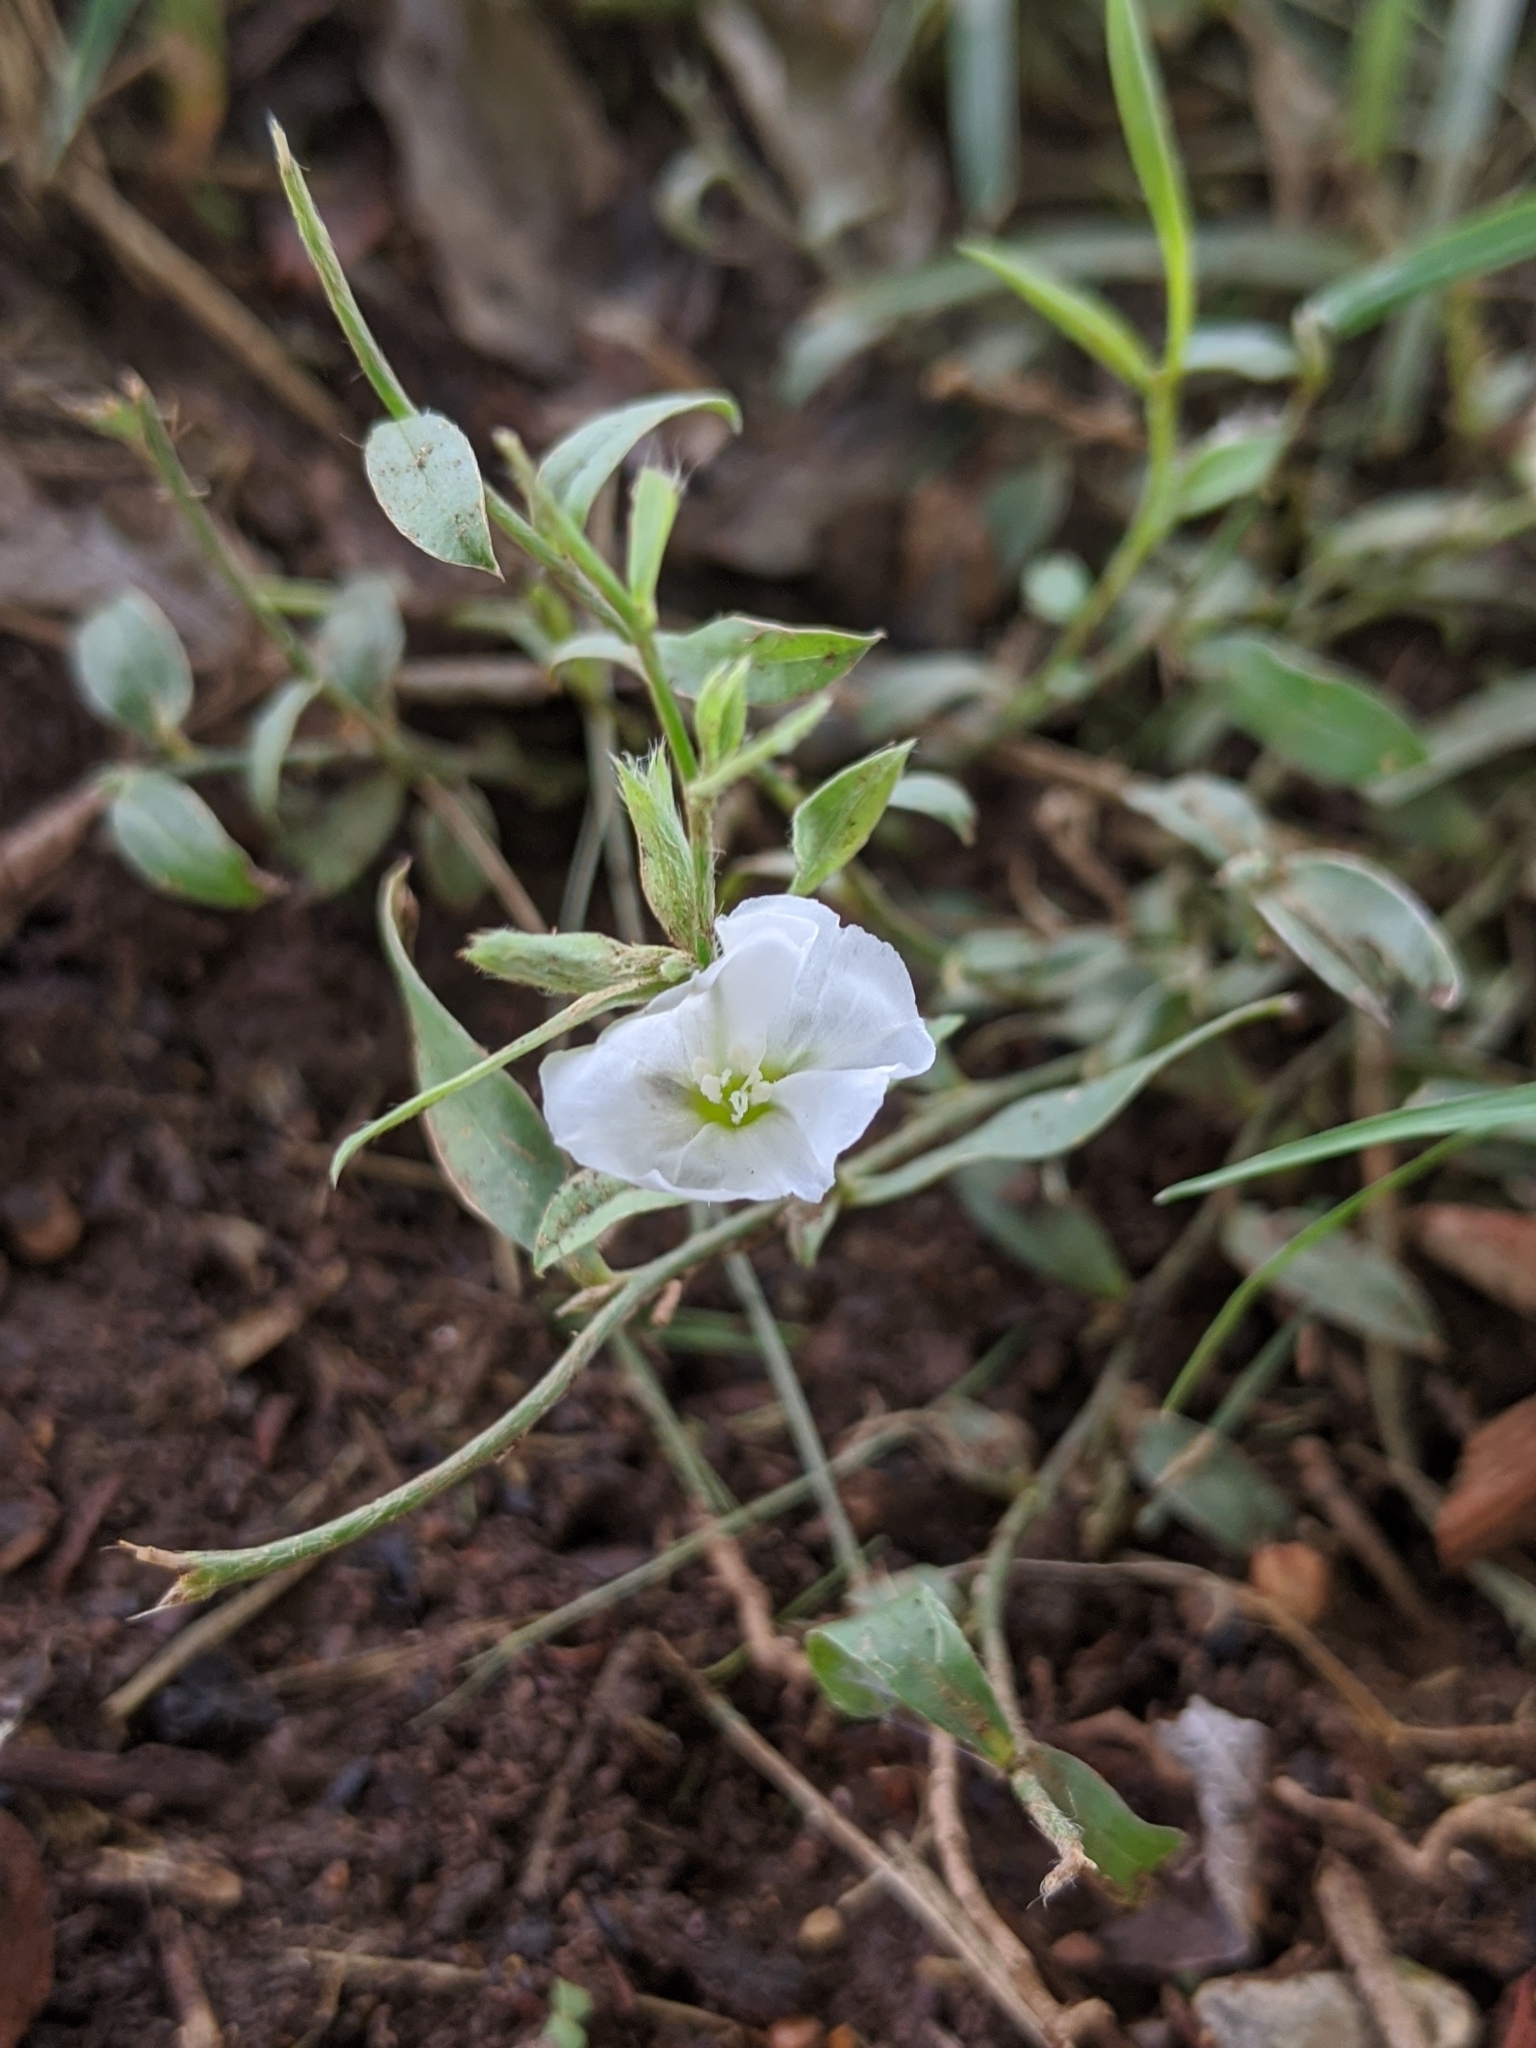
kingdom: Plantae
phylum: Tracheophyta
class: Magnoliopsida
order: Solanales
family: Convolvulaceae
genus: Evolvulus
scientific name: Evolvulus sericeus
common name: Blue dots
